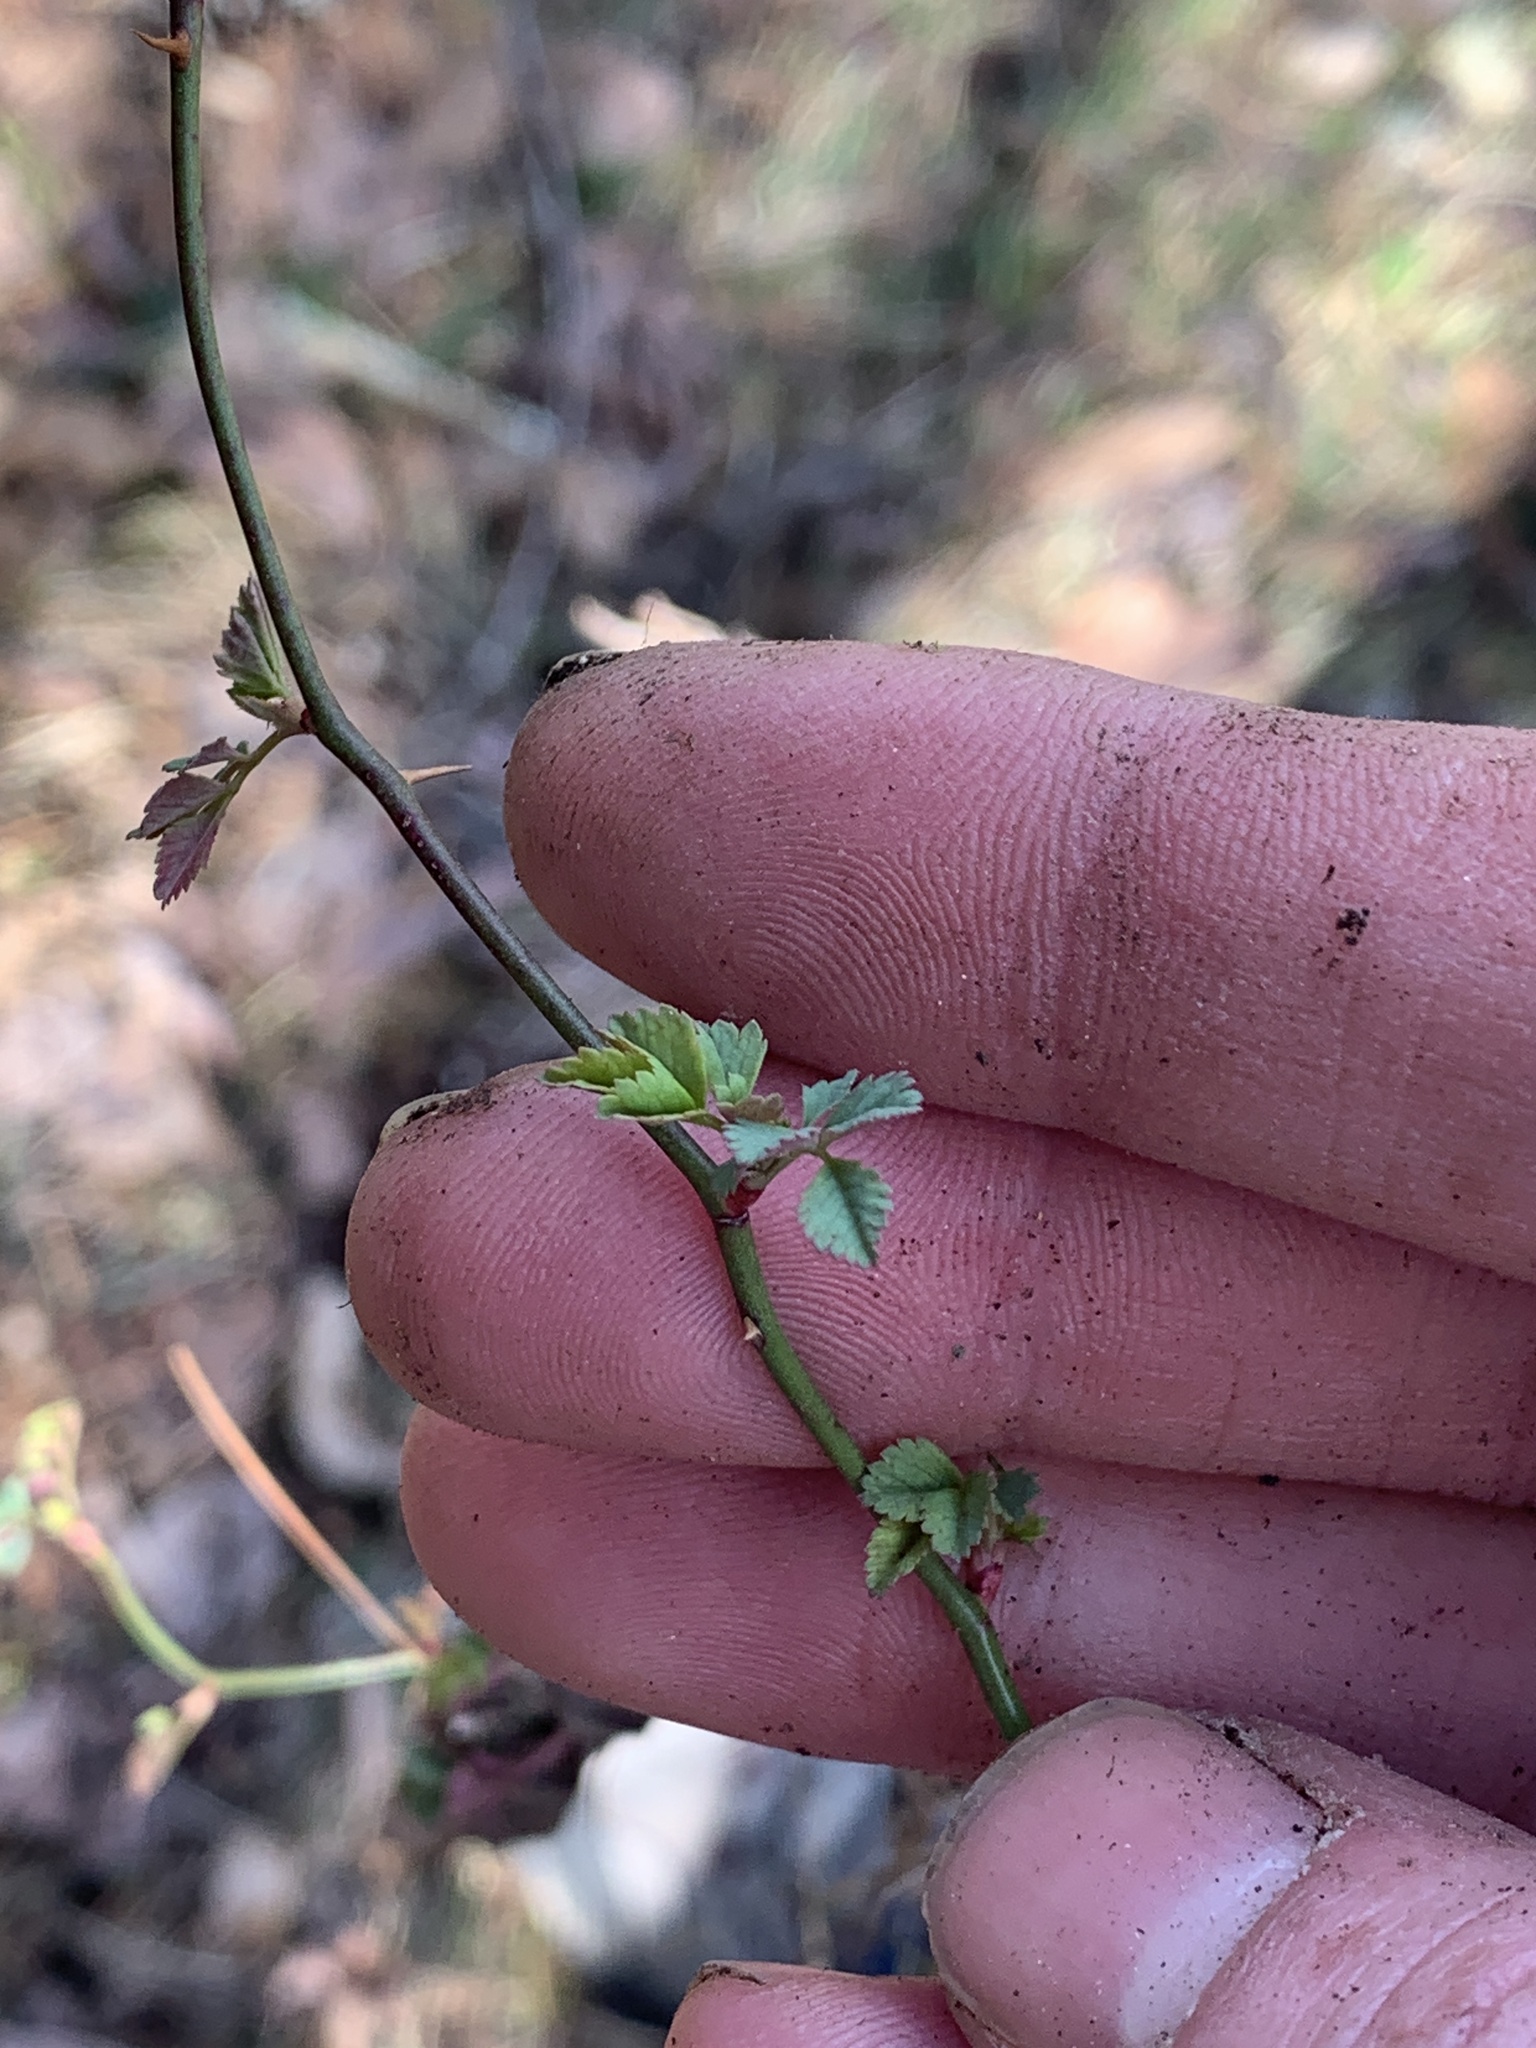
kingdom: Plantae
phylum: Tracheophyta
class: Magnoliopsida
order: Rosales
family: Rosaceae
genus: Rosa
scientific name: Rosa multiflora
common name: Multiflora rose
